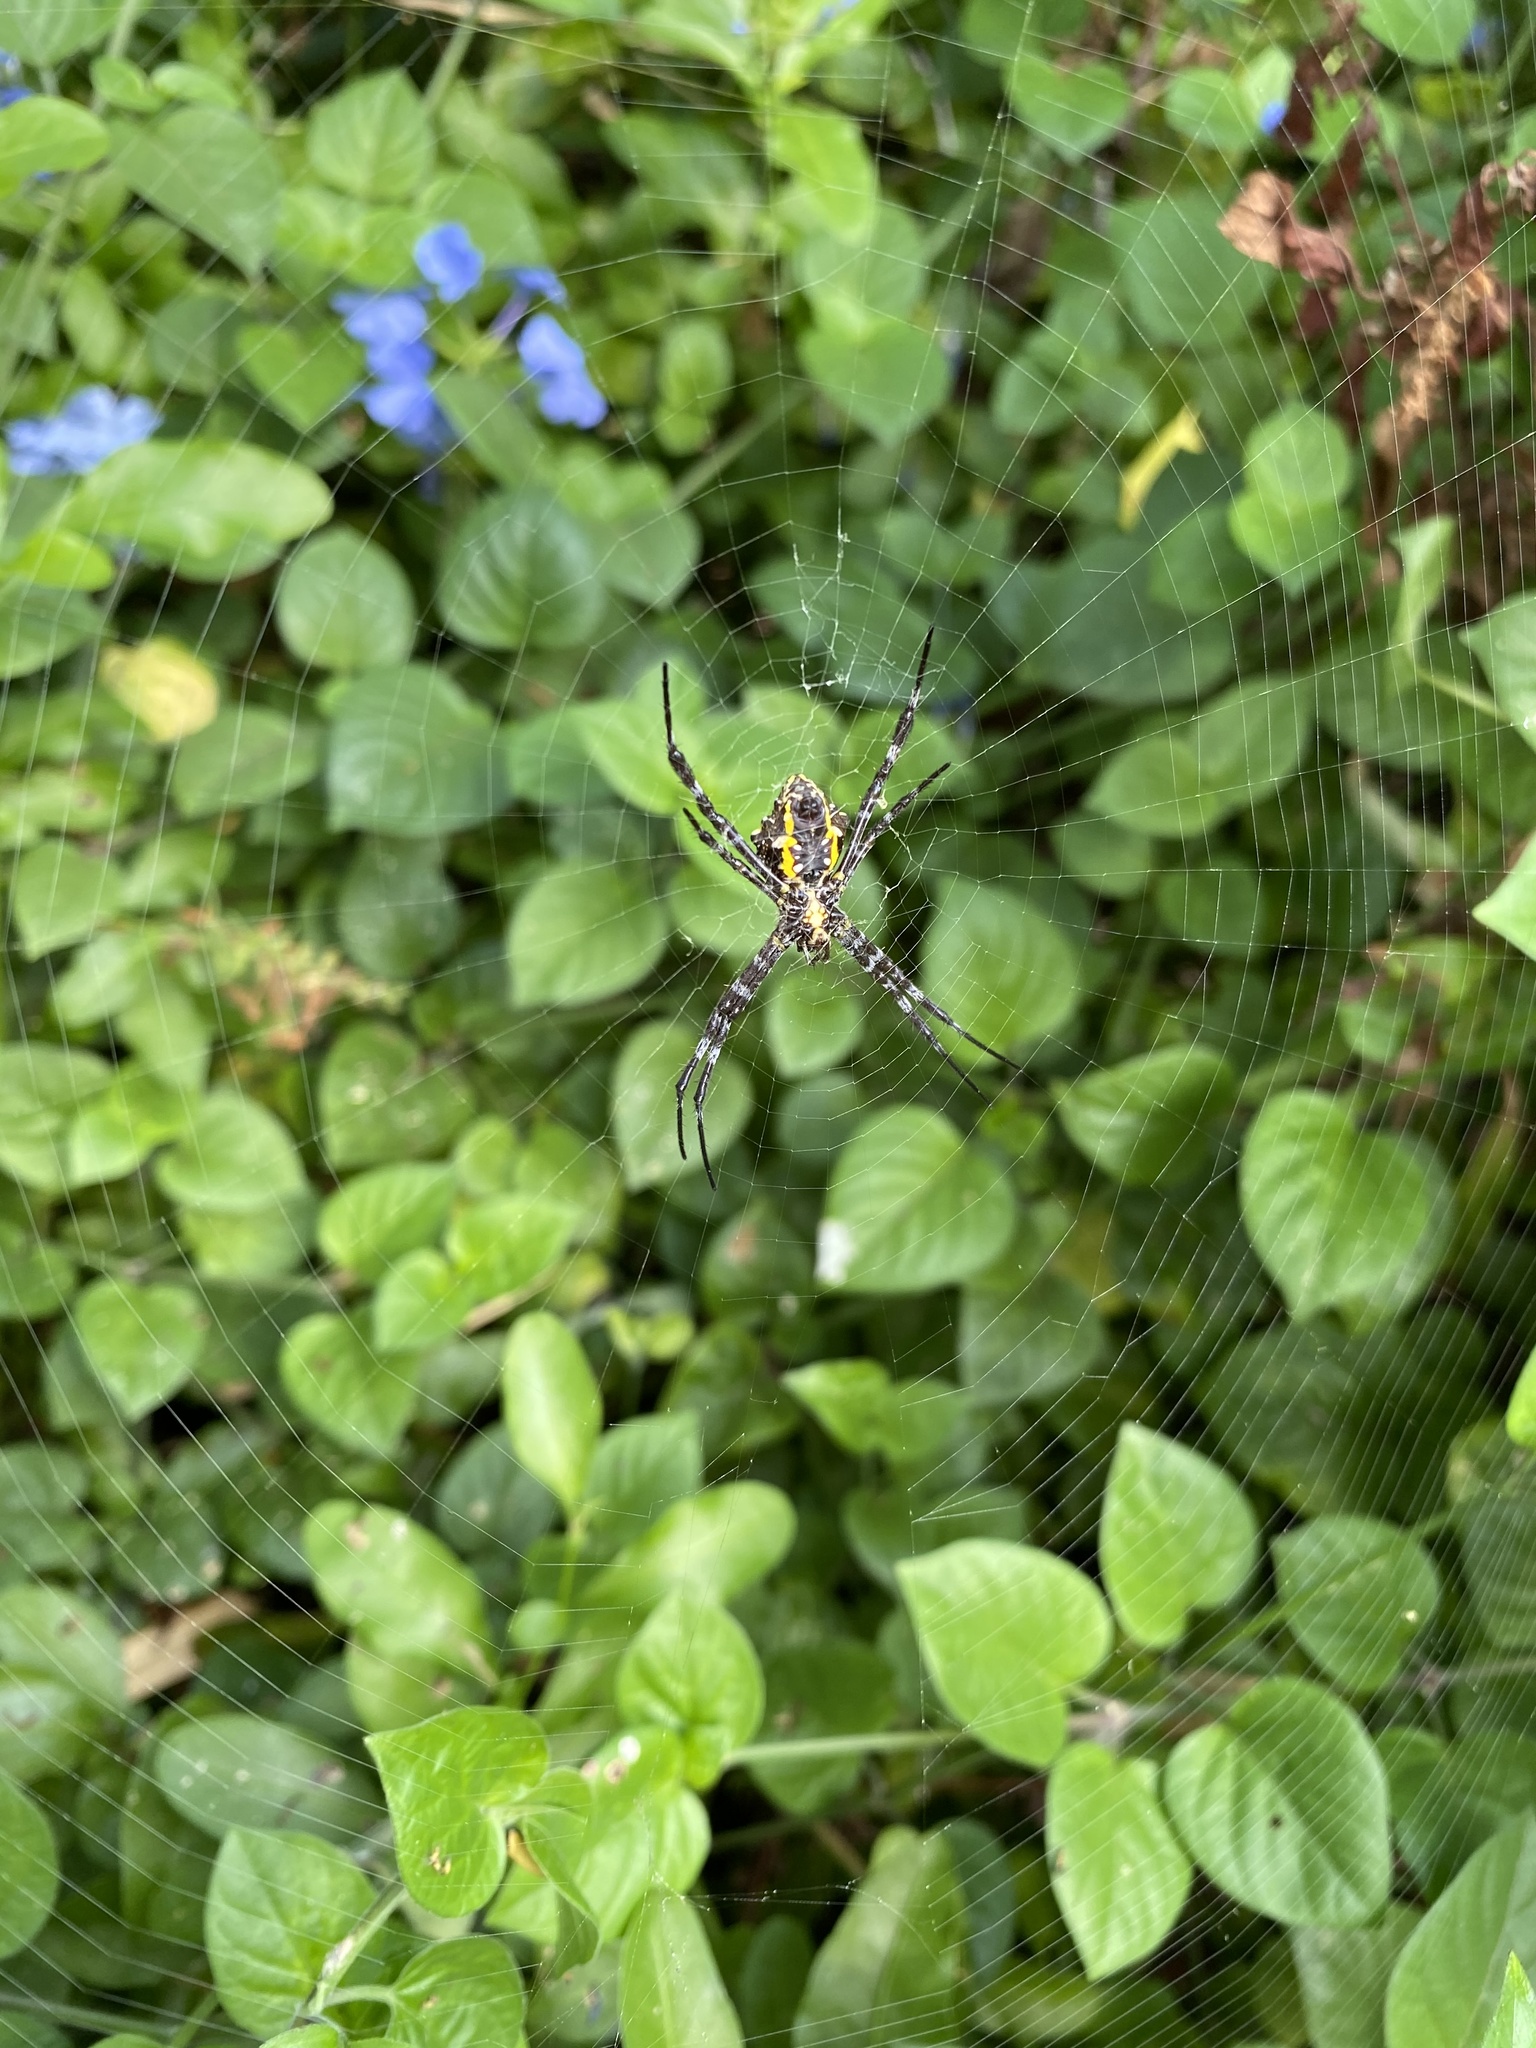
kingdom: Animalia
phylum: Arthropoda
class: Arachnida
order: Araneae
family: Araneidae
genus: Argiope
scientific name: Argiope appensa
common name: Garden spider
